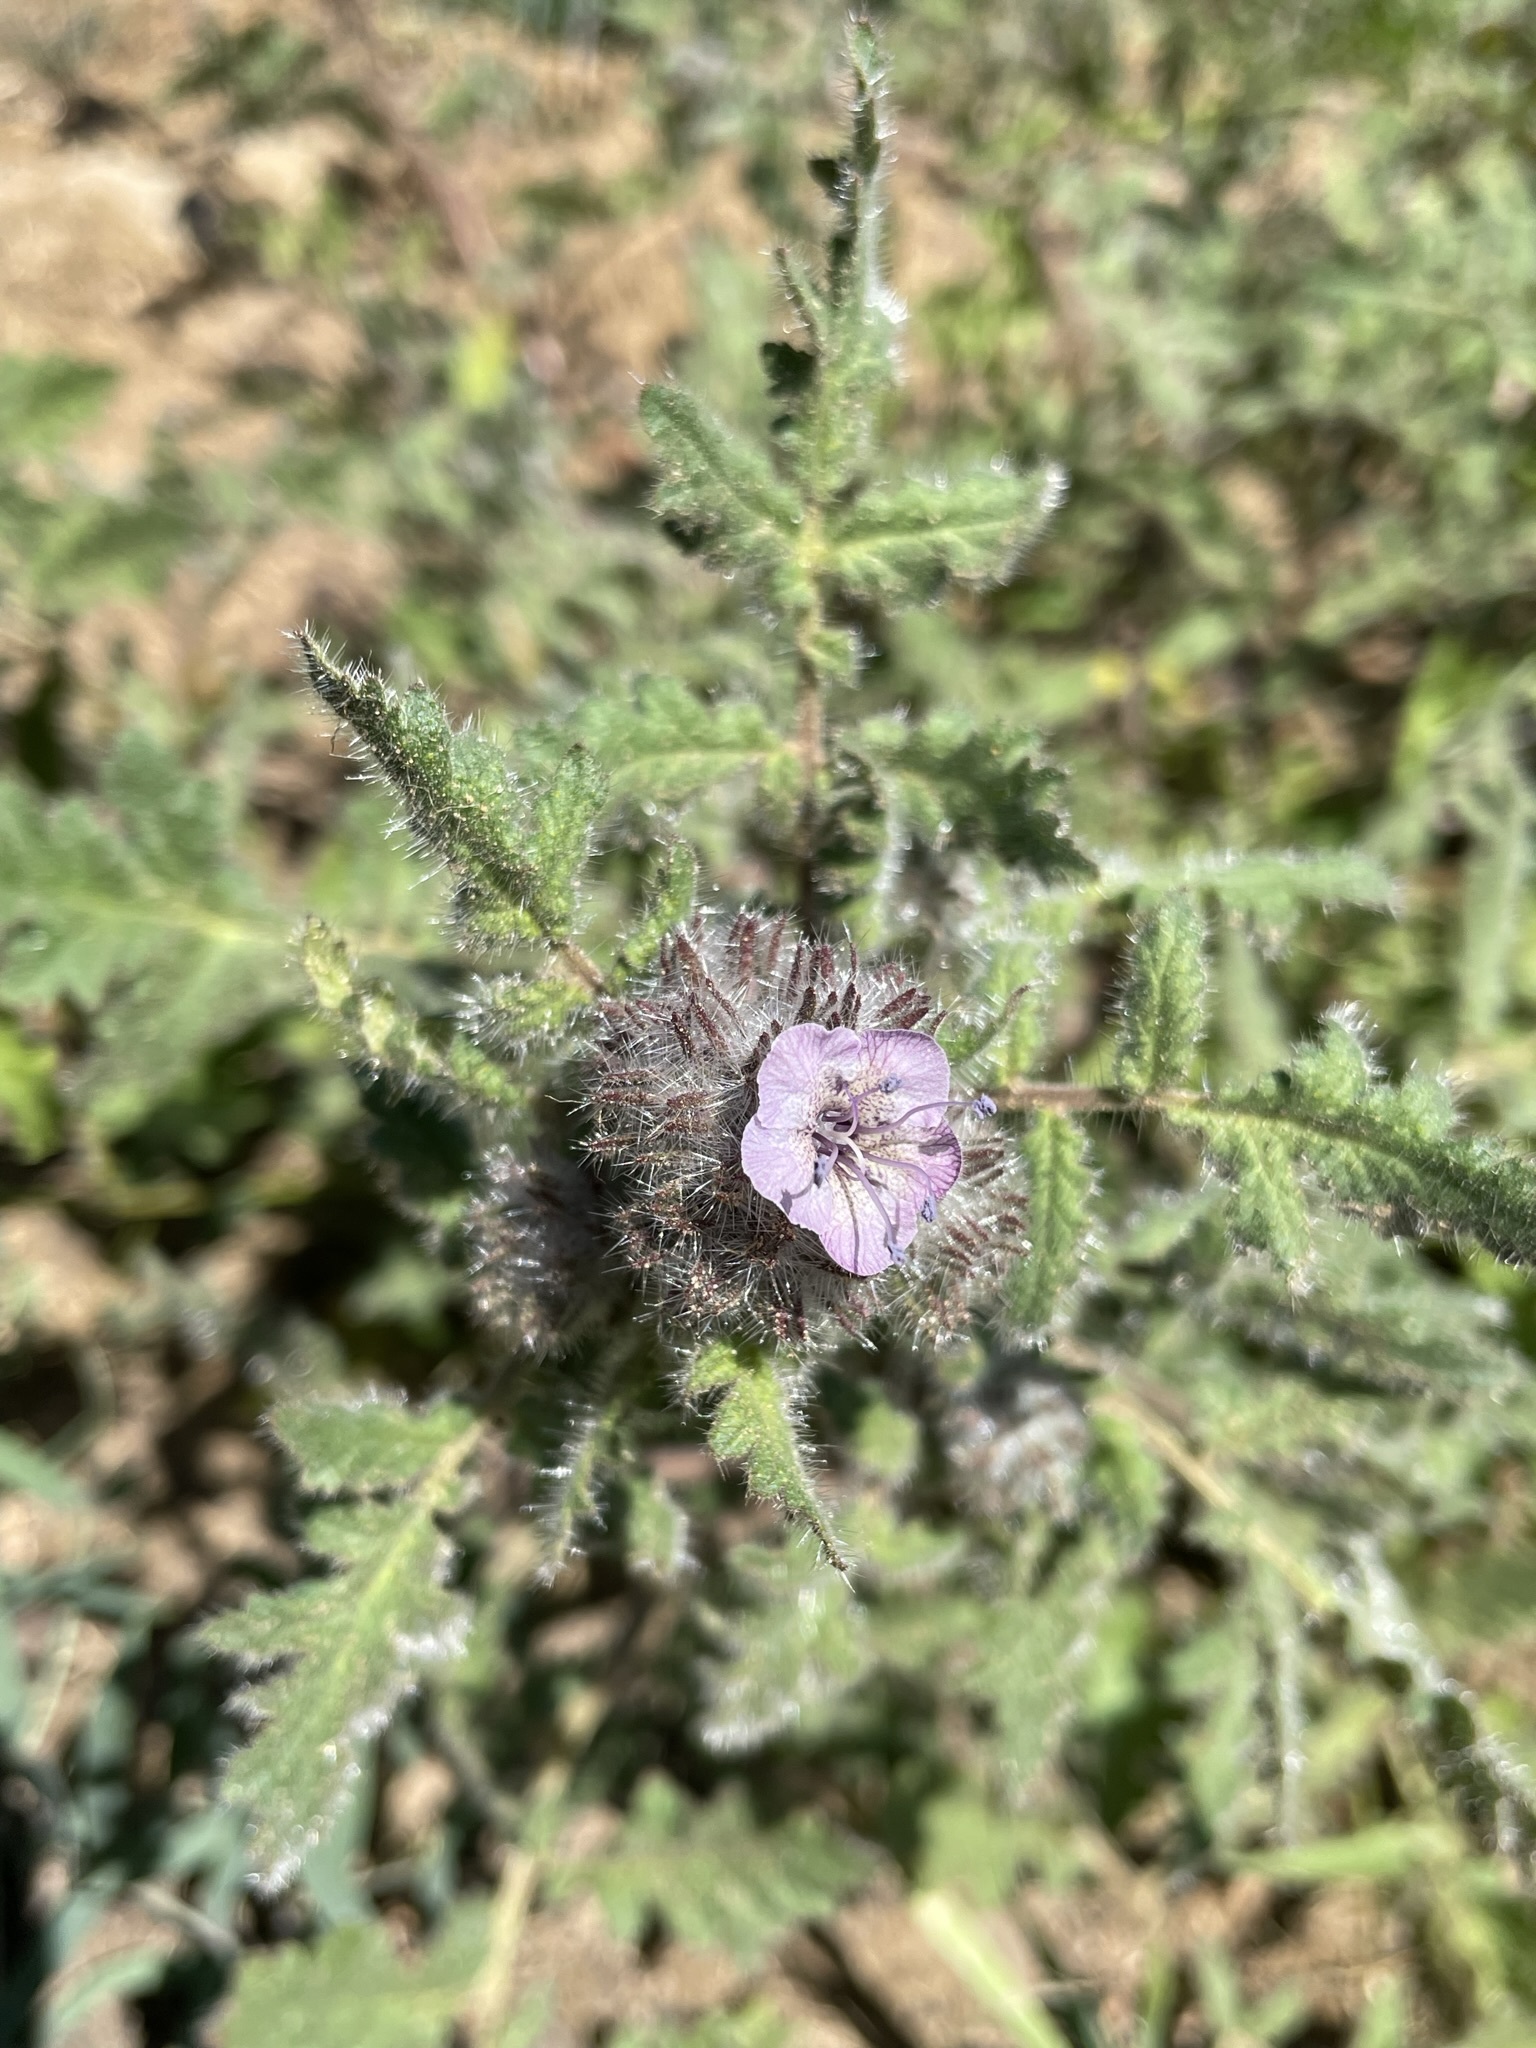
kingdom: Plantae
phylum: Tracheophyta
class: Magnoliopsida
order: Boraginales
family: Hydrophyllaceae
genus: Phacelia
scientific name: Phacelia cicutaria
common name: Caterpillar phacelia
